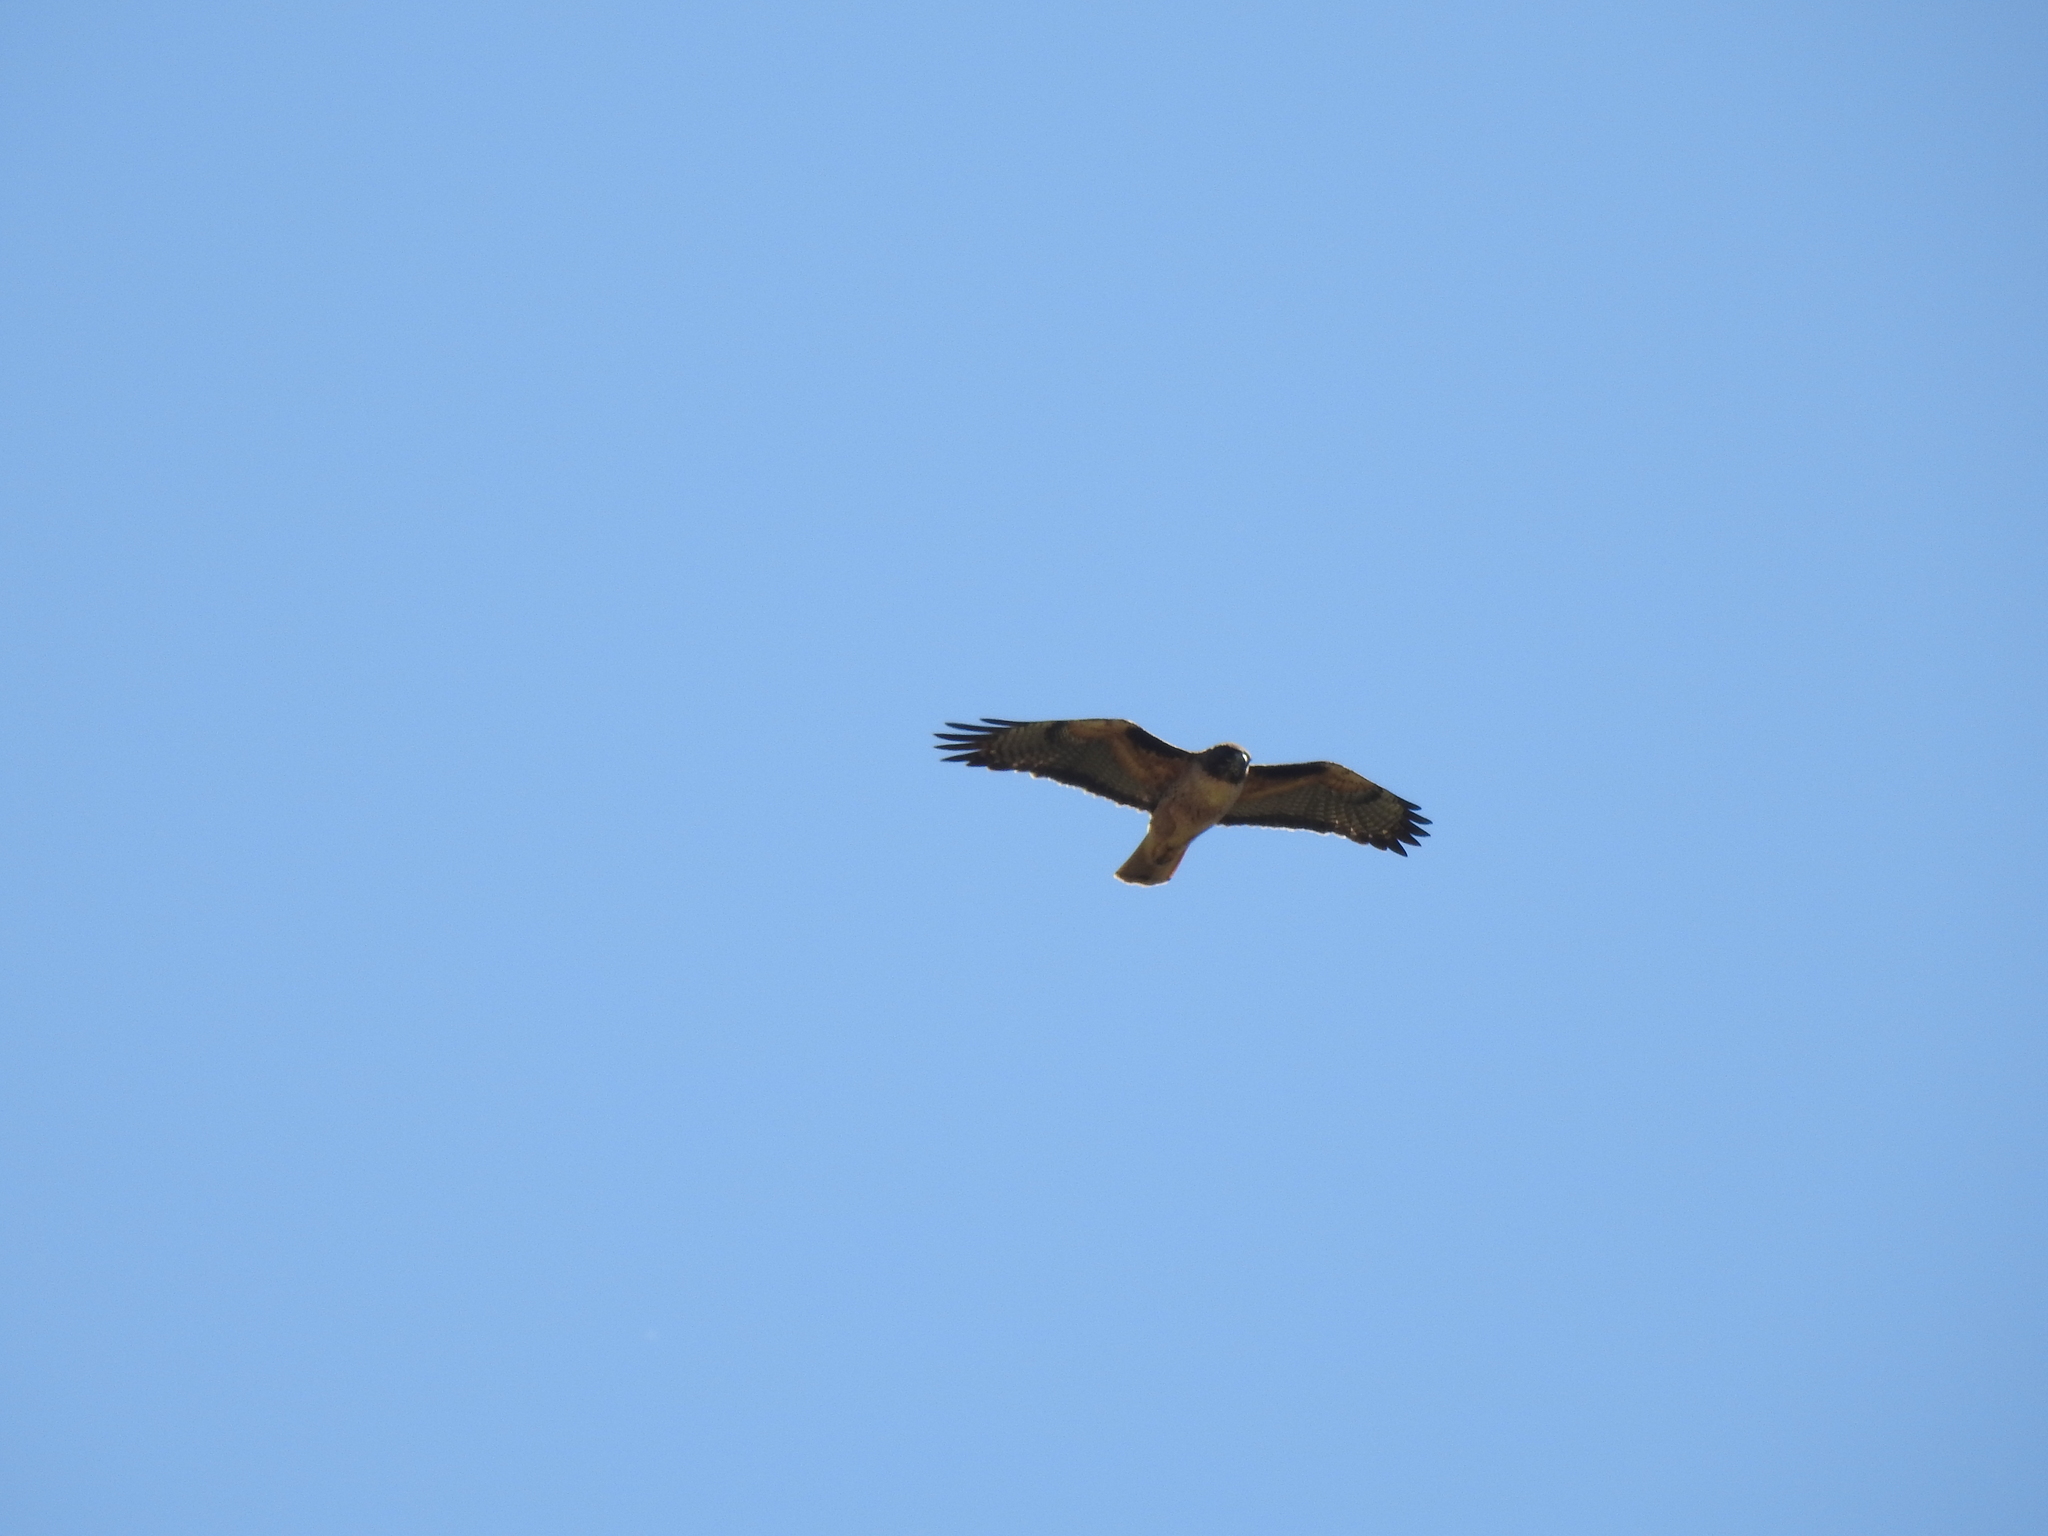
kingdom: Animalia
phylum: Chordata
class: Aves
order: Accipitriformes
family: Accipitridae
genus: Buteo
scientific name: Buteo jamaicensis
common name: Red-tailed hawk
